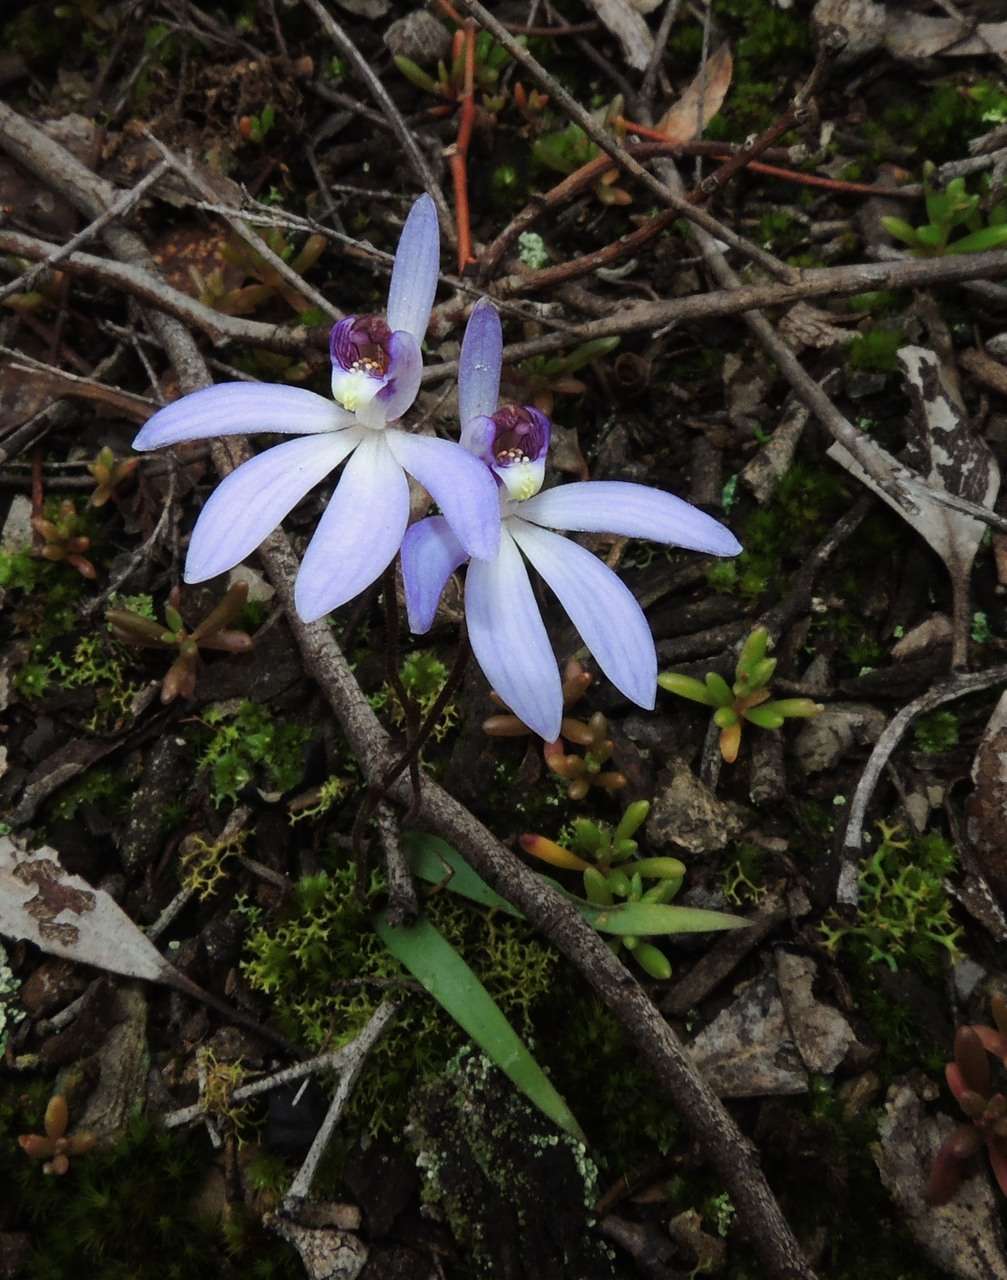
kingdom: Plantae
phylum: Tracheophyta
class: Liliopsida
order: Asparagales
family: Orchidaceae
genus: Caladenia
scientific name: Caladenia caerulea
